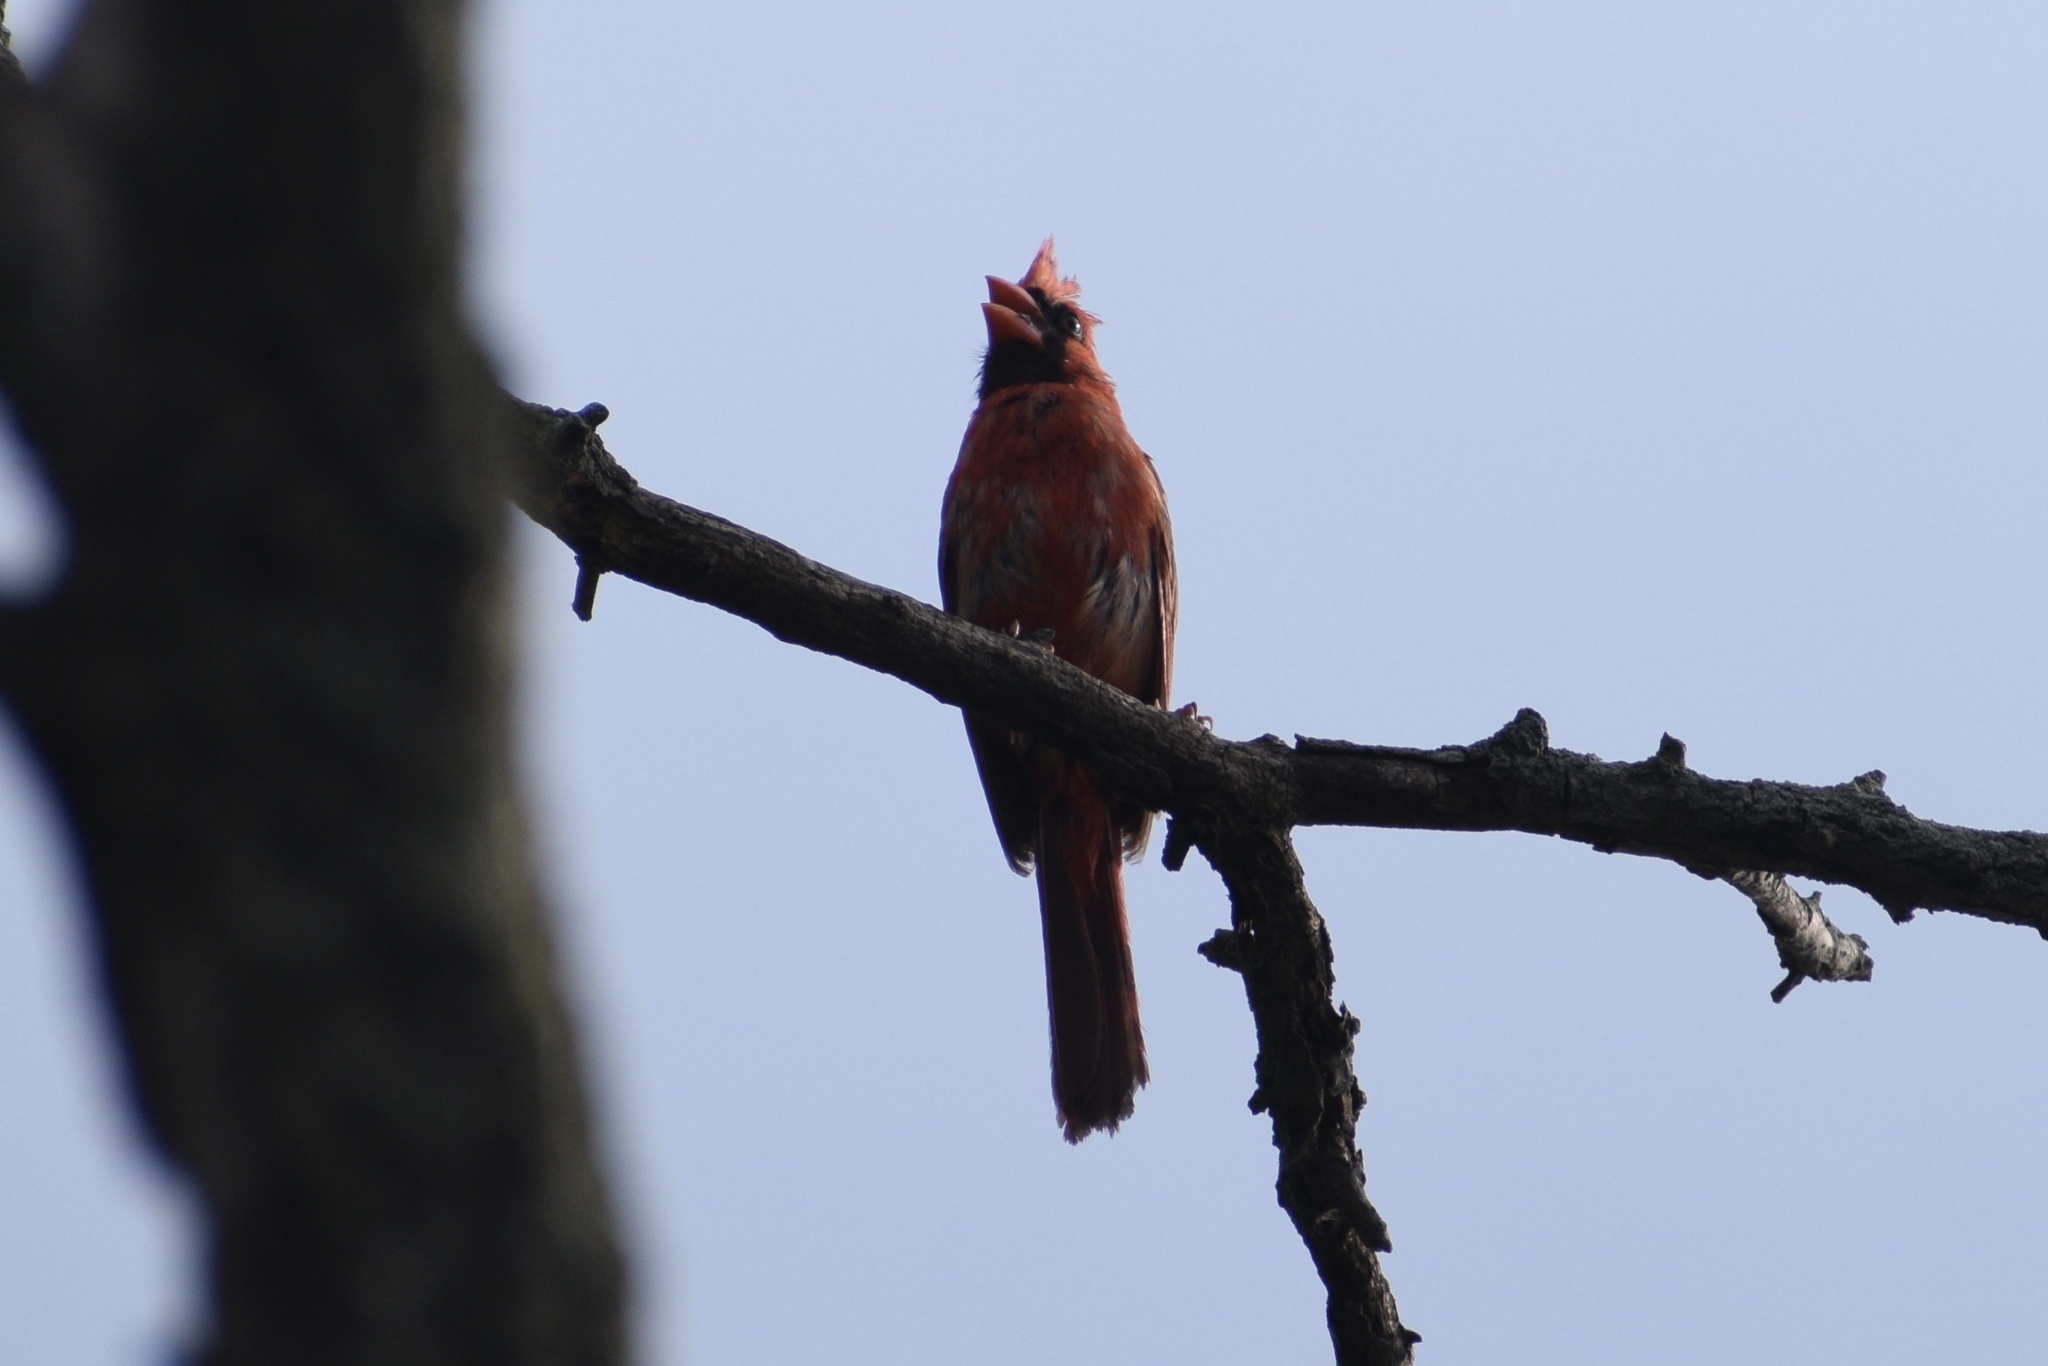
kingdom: Animalia
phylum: Chordata
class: Aves
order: Passeriformes
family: Cardinalidae
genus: Cardinalis
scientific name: Cardinalis cardinalis
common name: Northern cardinal
